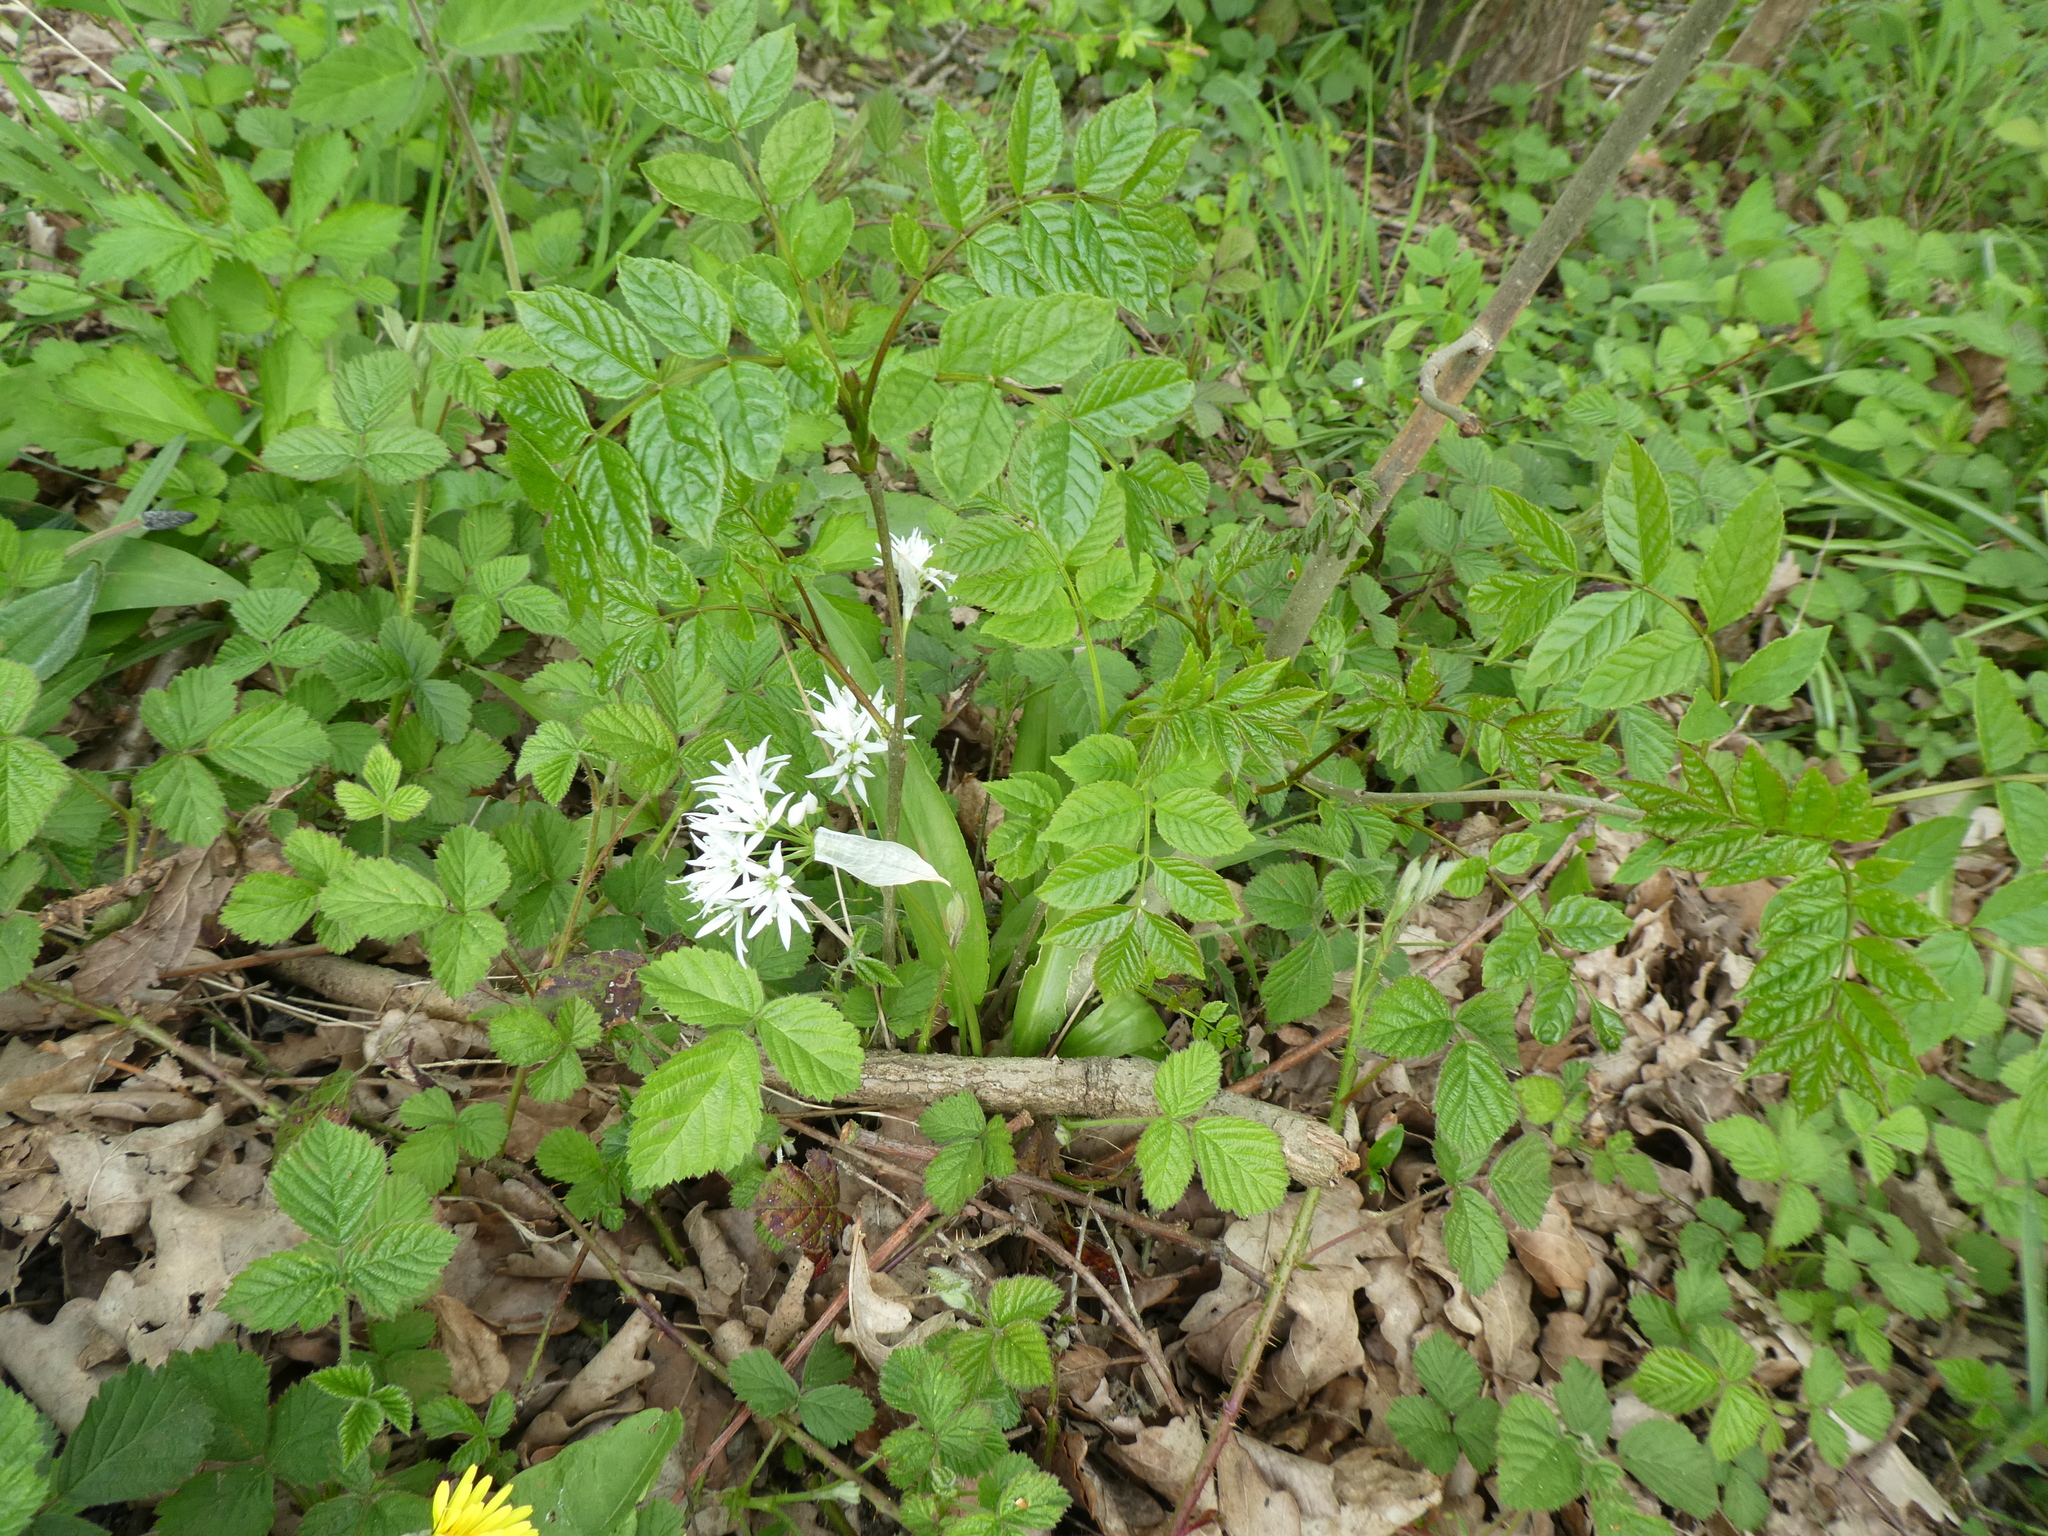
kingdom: Plantae
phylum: Tracheophyta
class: Liliopsida
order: Asparagales
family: Amaryllidaceae
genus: Allium
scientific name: Allium ursinum
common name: Ramsons
